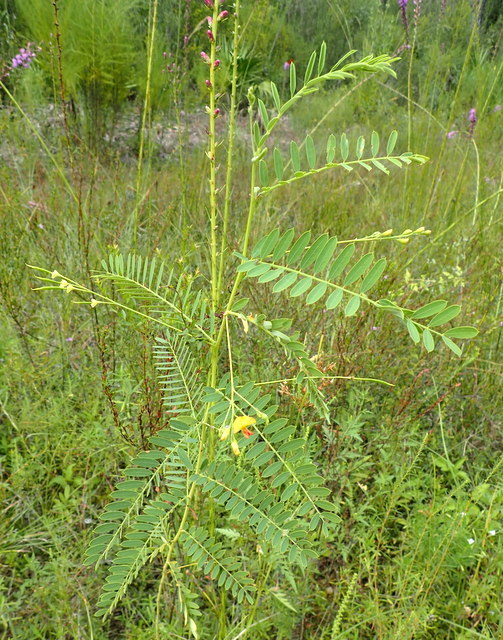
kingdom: Plantae
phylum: Tracheophyta
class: Magnoliopsida
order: Fabales
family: Fabaceae
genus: Sesbania
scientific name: Sesbania herbacea
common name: Bigpod sesbania
